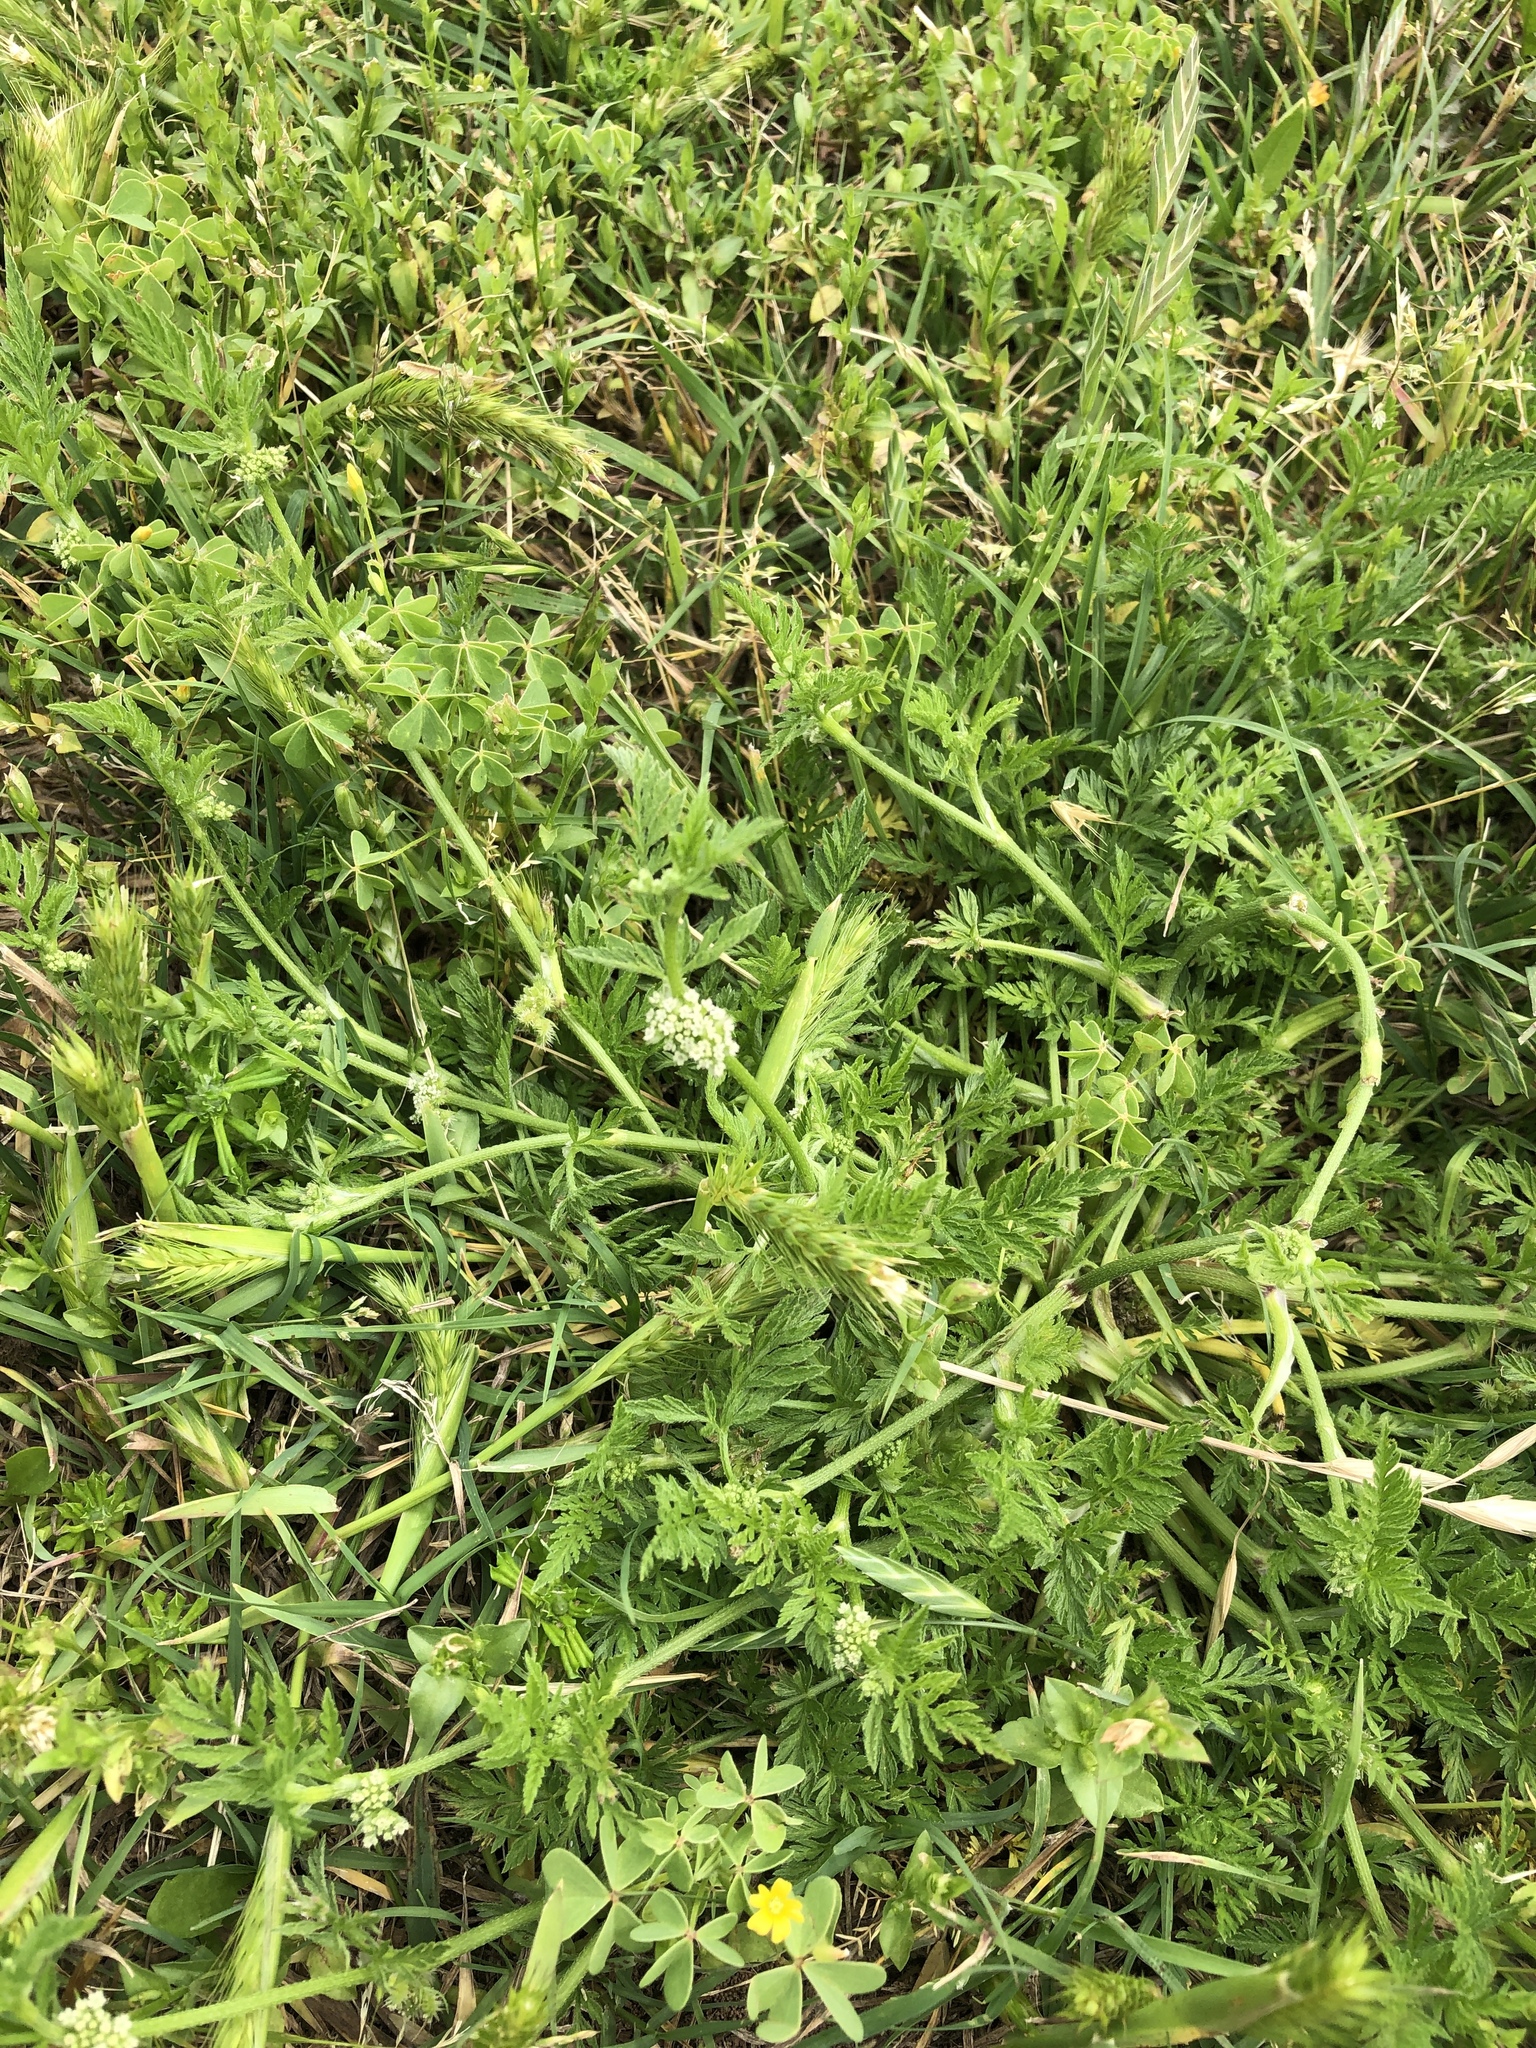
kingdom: Plantae
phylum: Tracheophyta
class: Magnoliopsida
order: Apiales
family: Apiaceae
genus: Torilis
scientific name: Torilis nodosa
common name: Knotted hedge-parsley
